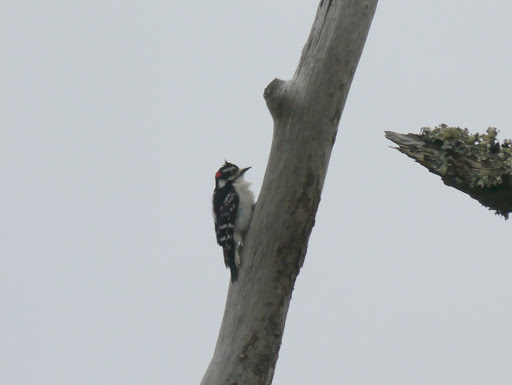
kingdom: Animalia
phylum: Chordata
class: Aves
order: Piciformes
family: Picidae
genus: Dryobates
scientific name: Dryobates pubescens
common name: Downy woodpecker
